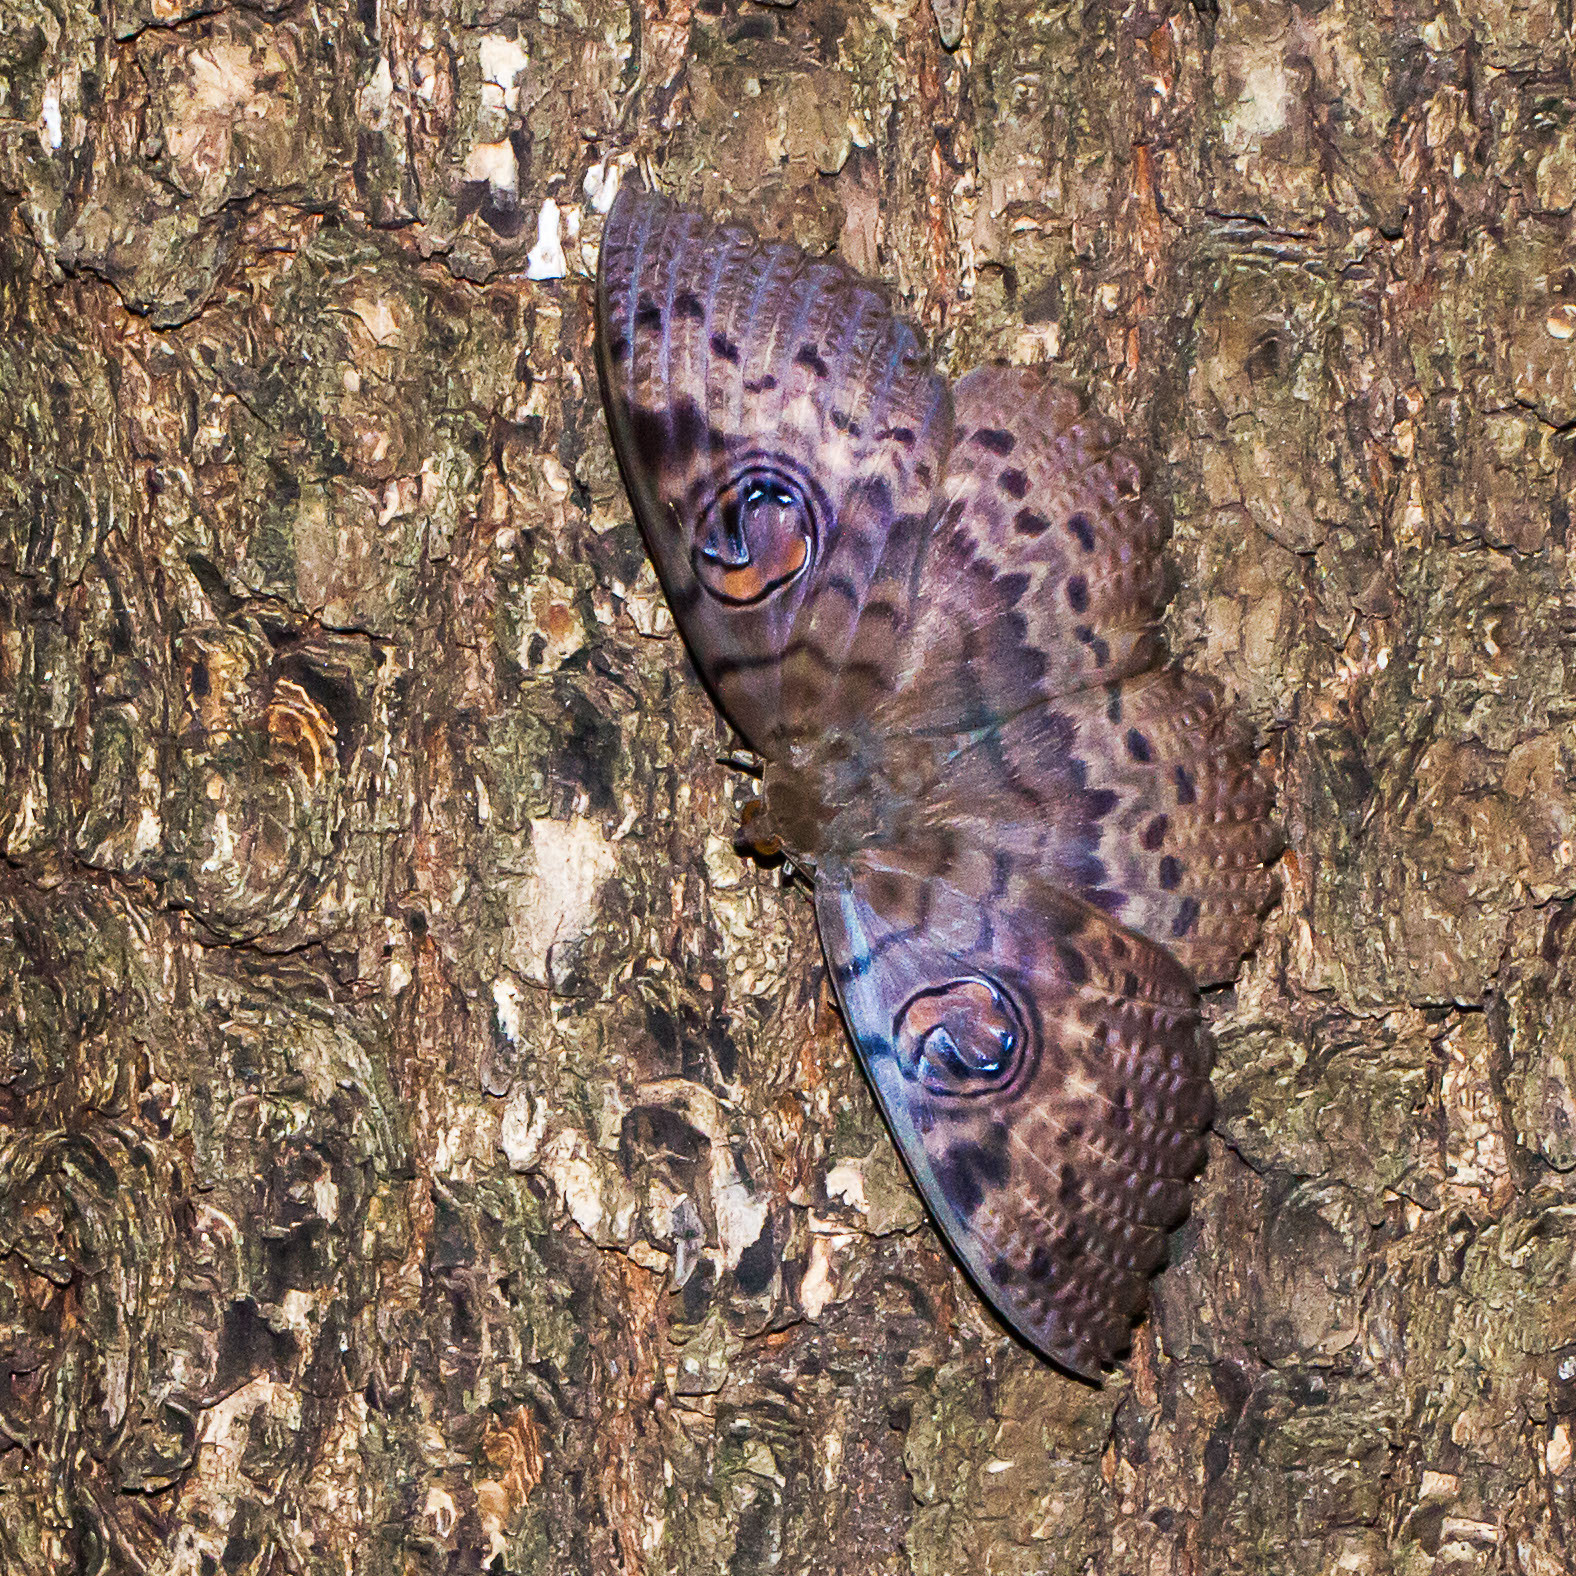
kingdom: Animalia
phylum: Arthropoda
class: Insecta
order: Lepidoptera
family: Erebidae
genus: Erebus
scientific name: Erebus walkeri
